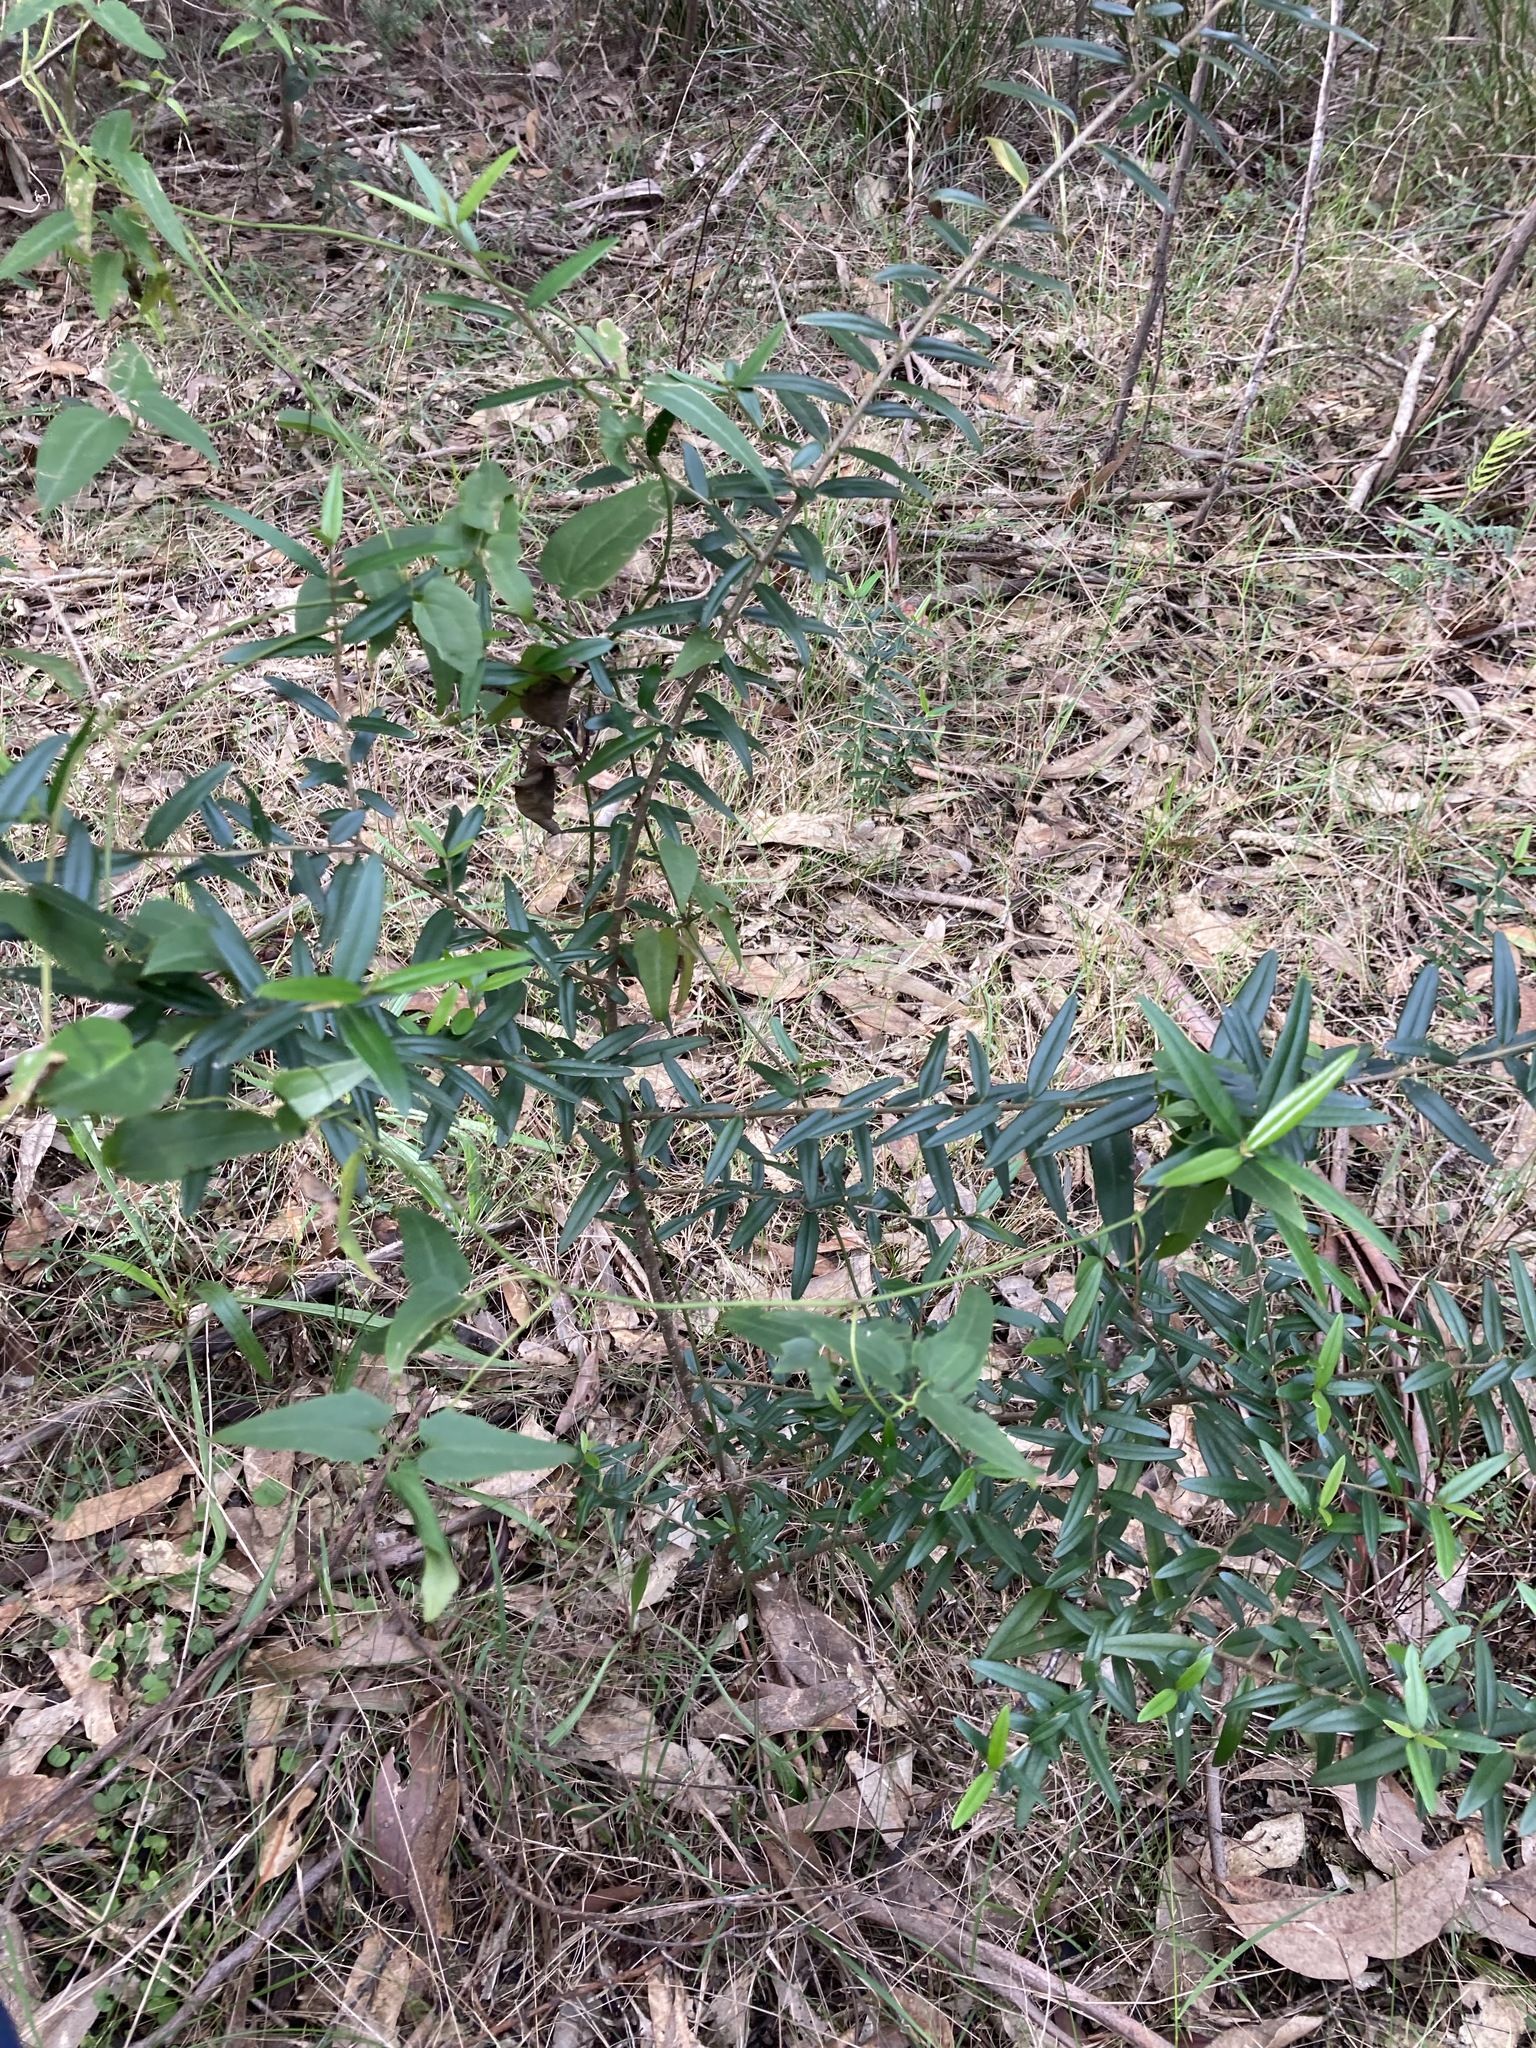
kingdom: Plantae
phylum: Tracheophyta
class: Magnoliopsida
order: Lamiales
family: Oleaceae
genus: Olea
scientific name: Olea europaea
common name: Olive
